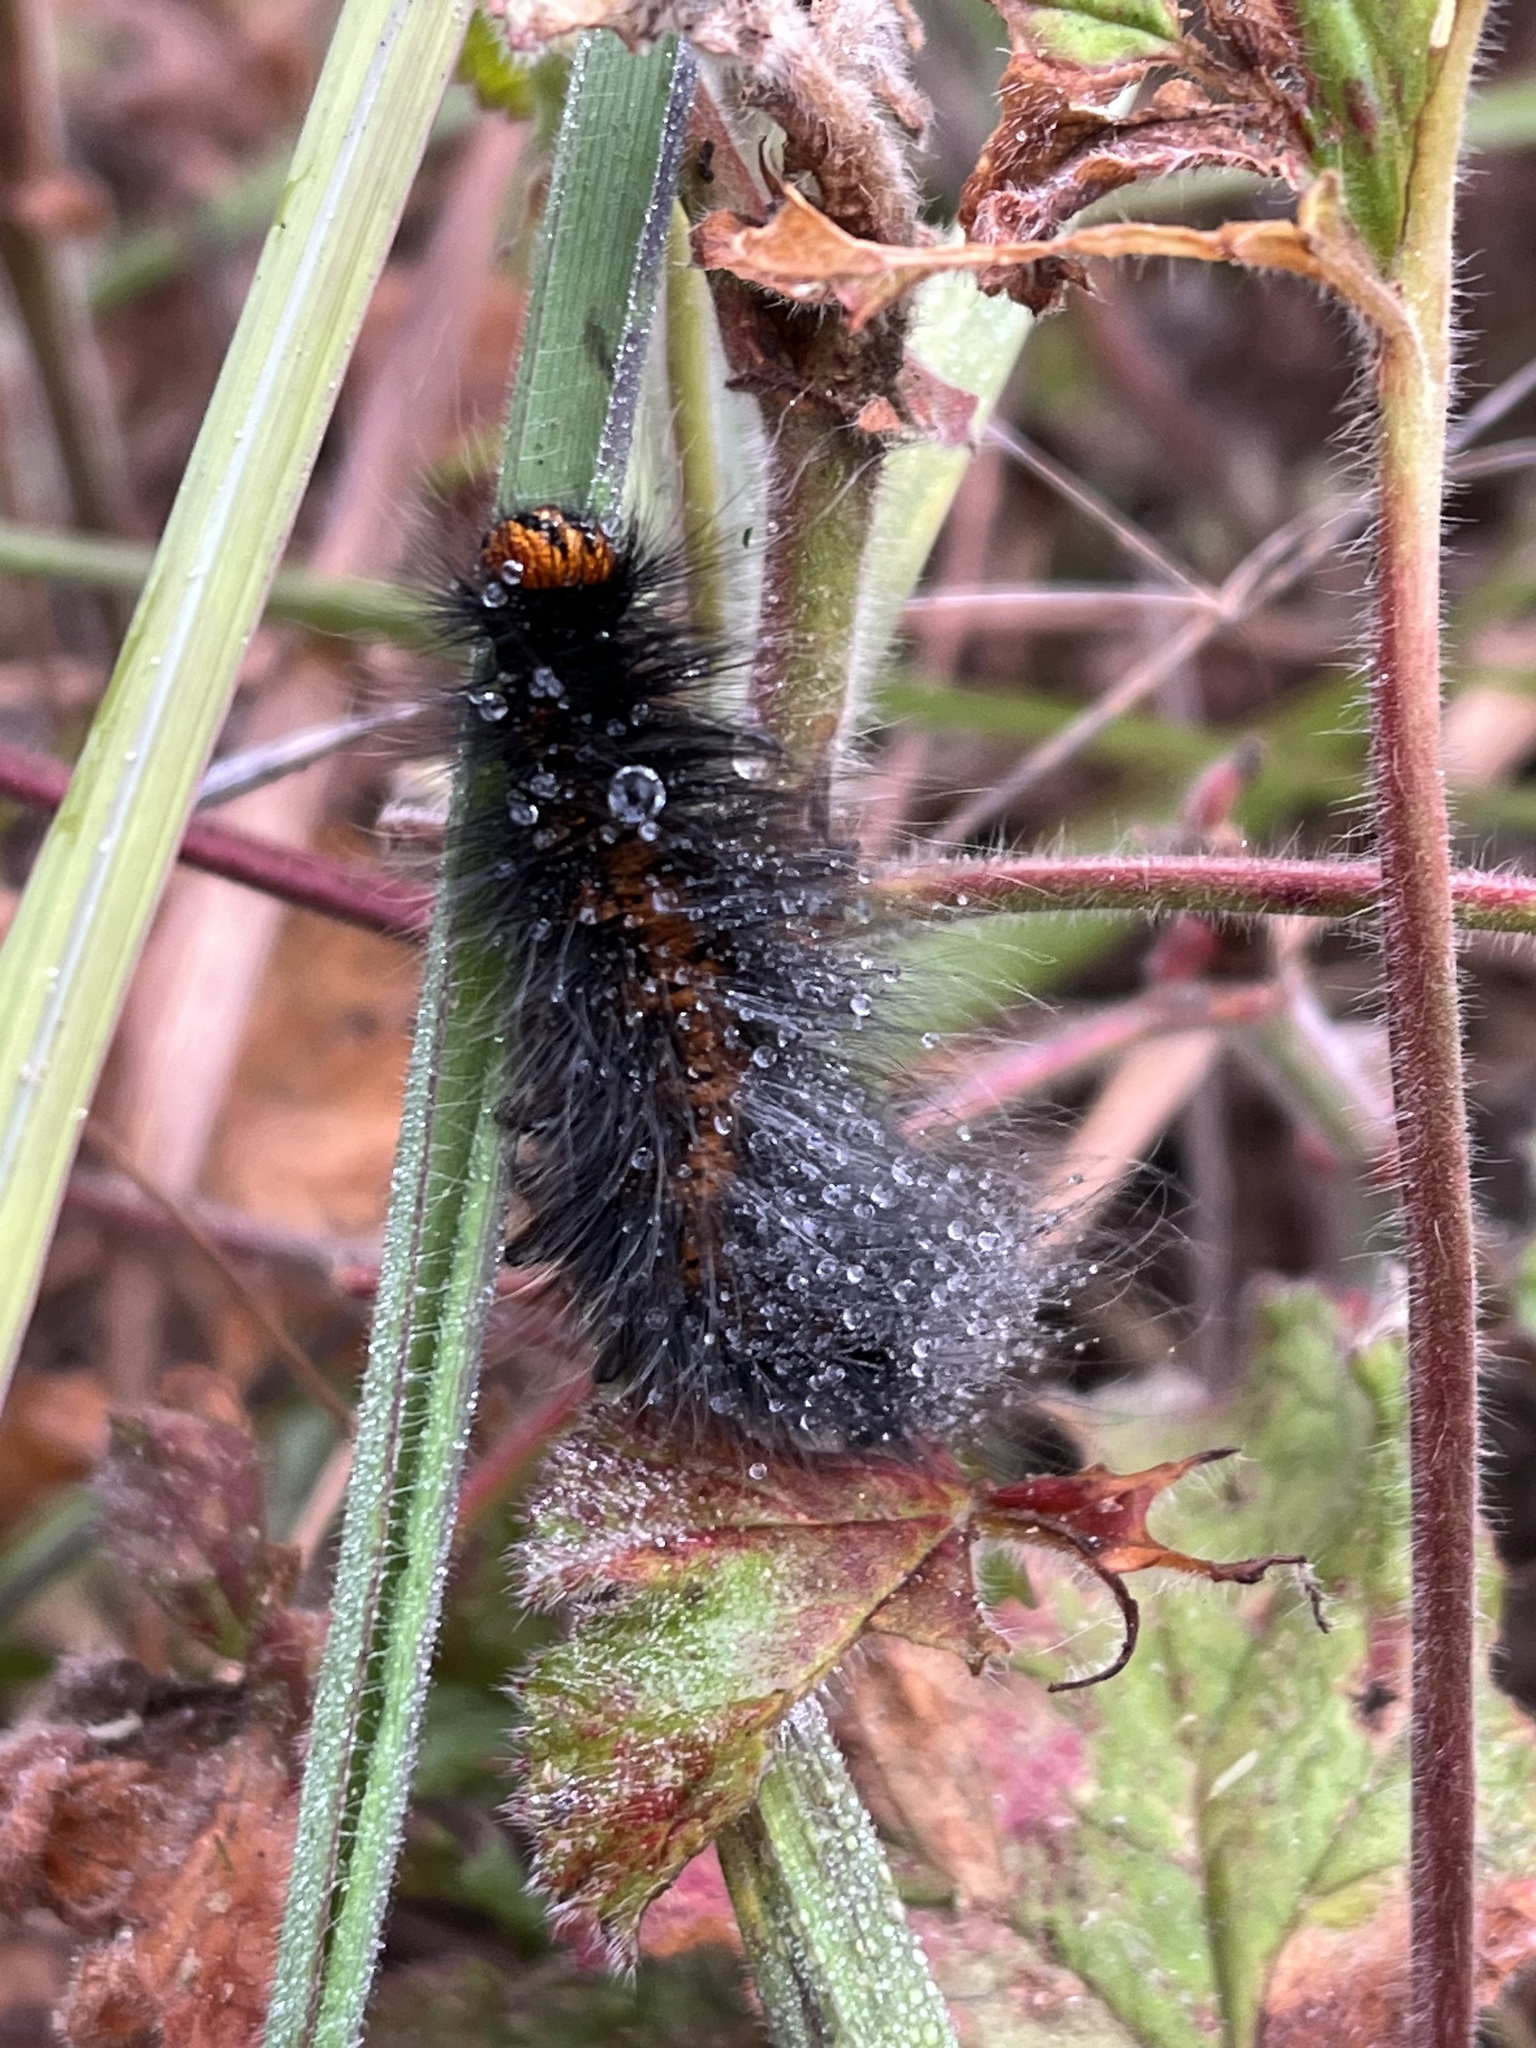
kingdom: Animalia
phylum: Arthropoda
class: Insecta
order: Lepidoptera
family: Lasiocampidae
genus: Mesocelis
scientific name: Mesocelis monticola
